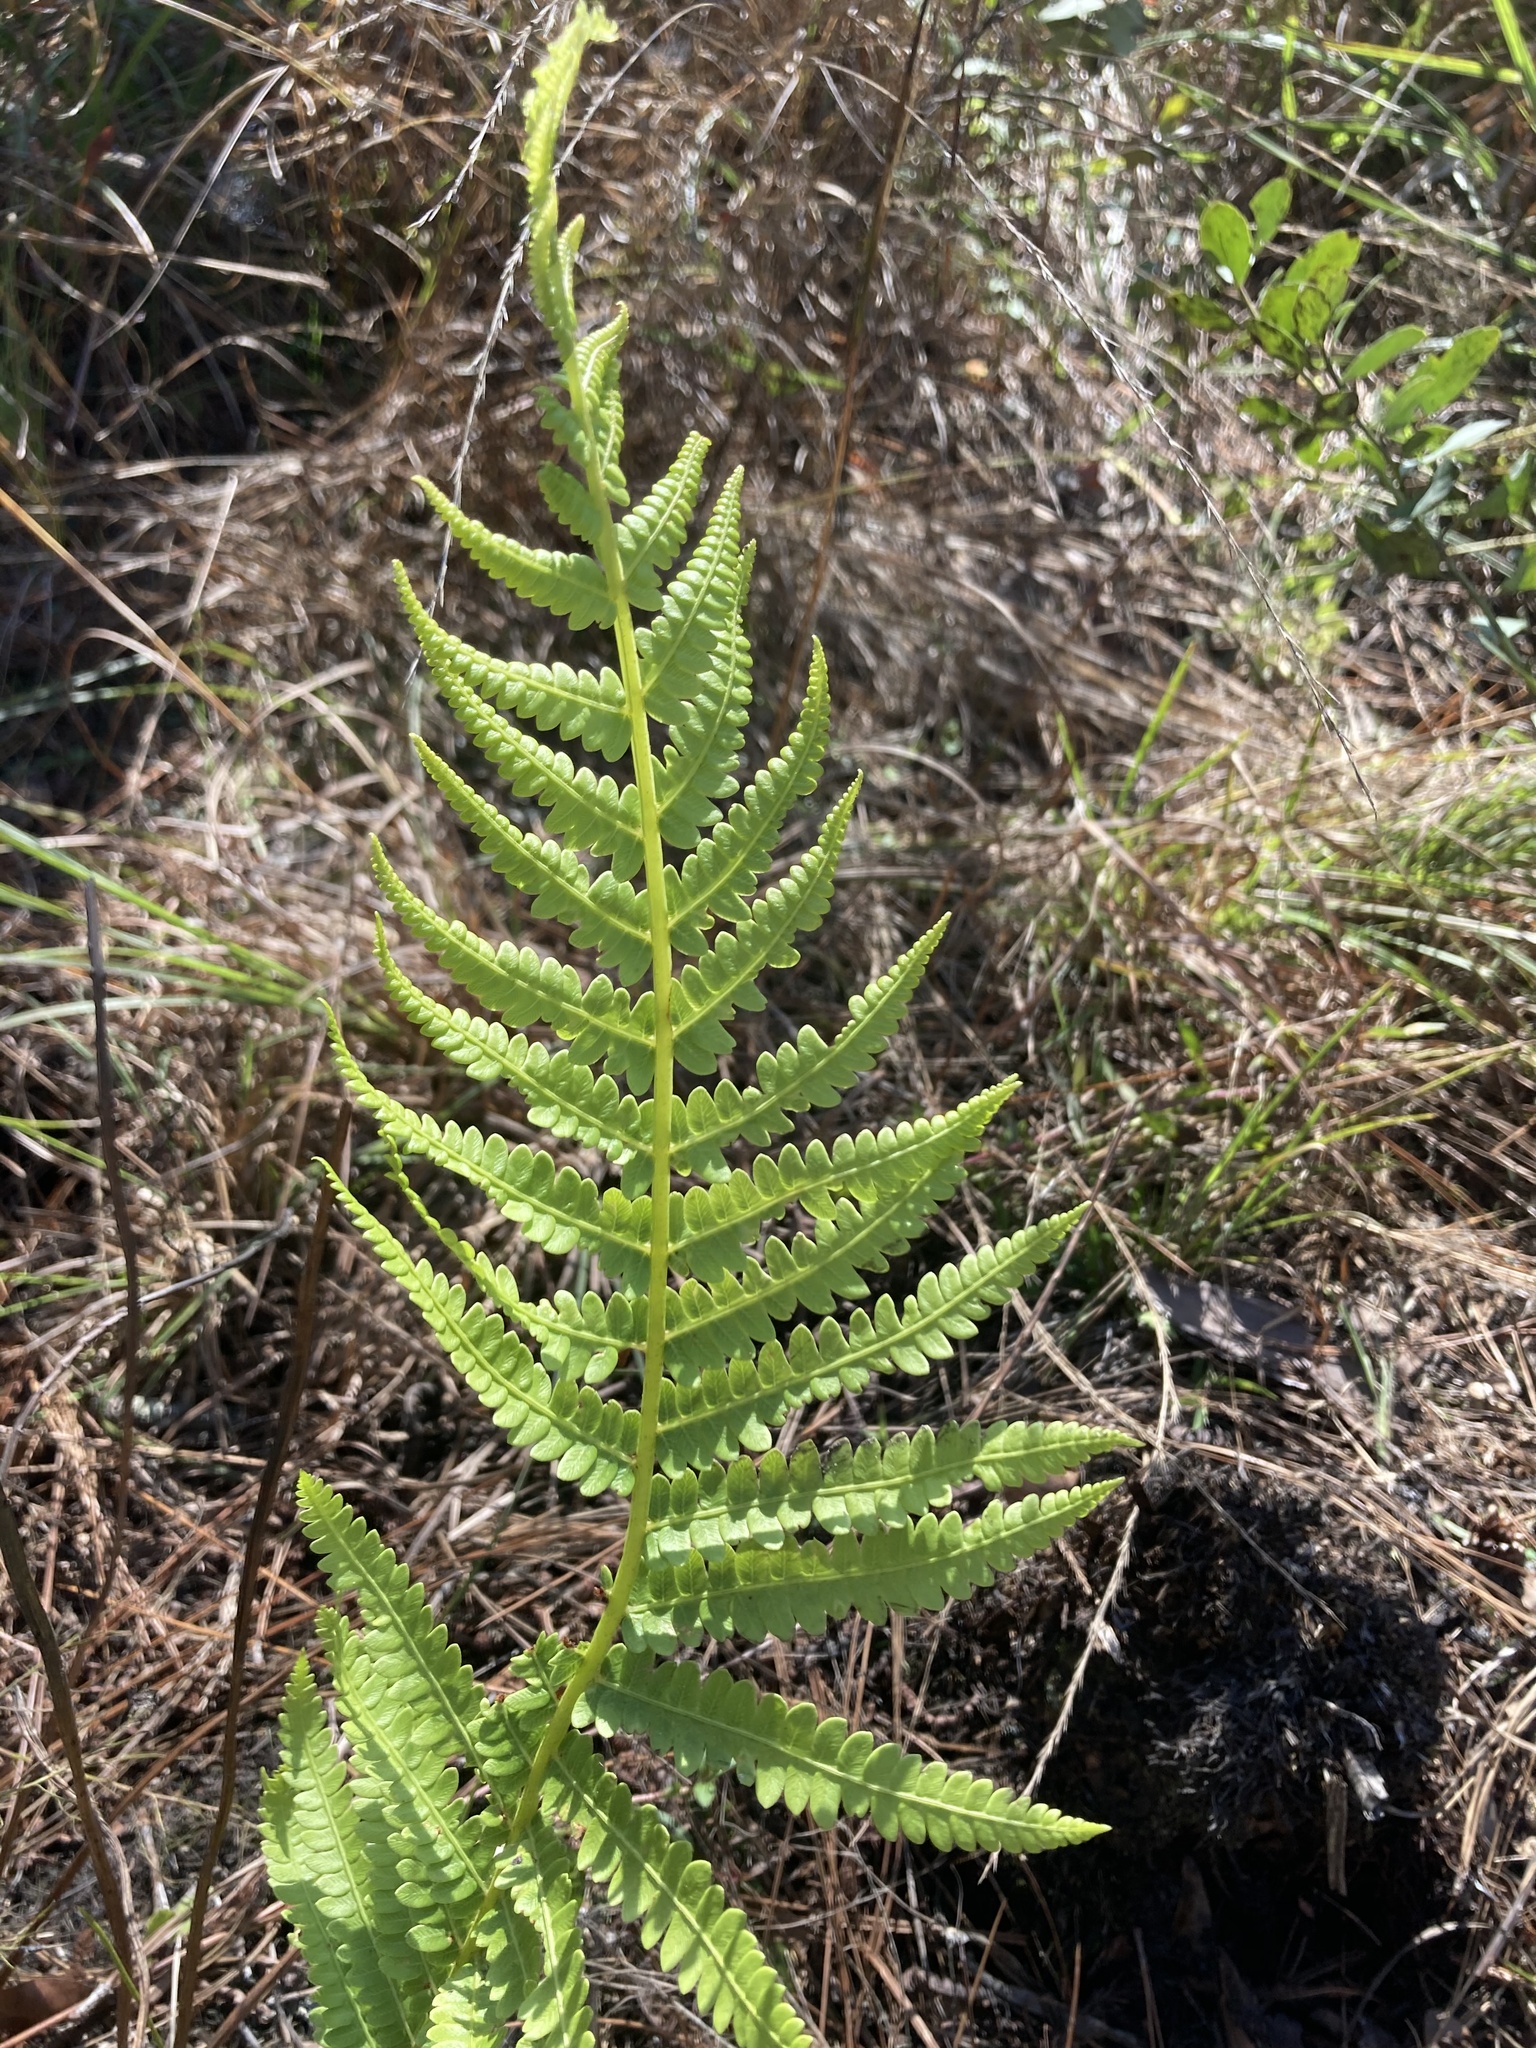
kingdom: Plantae
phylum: Tracheophyta
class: Polypodiopsida
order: Osmundales
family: Osmundaceae
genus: Osmundastrum
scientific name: Osmundastrum cinnamomeum
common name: Cinnamon fern
